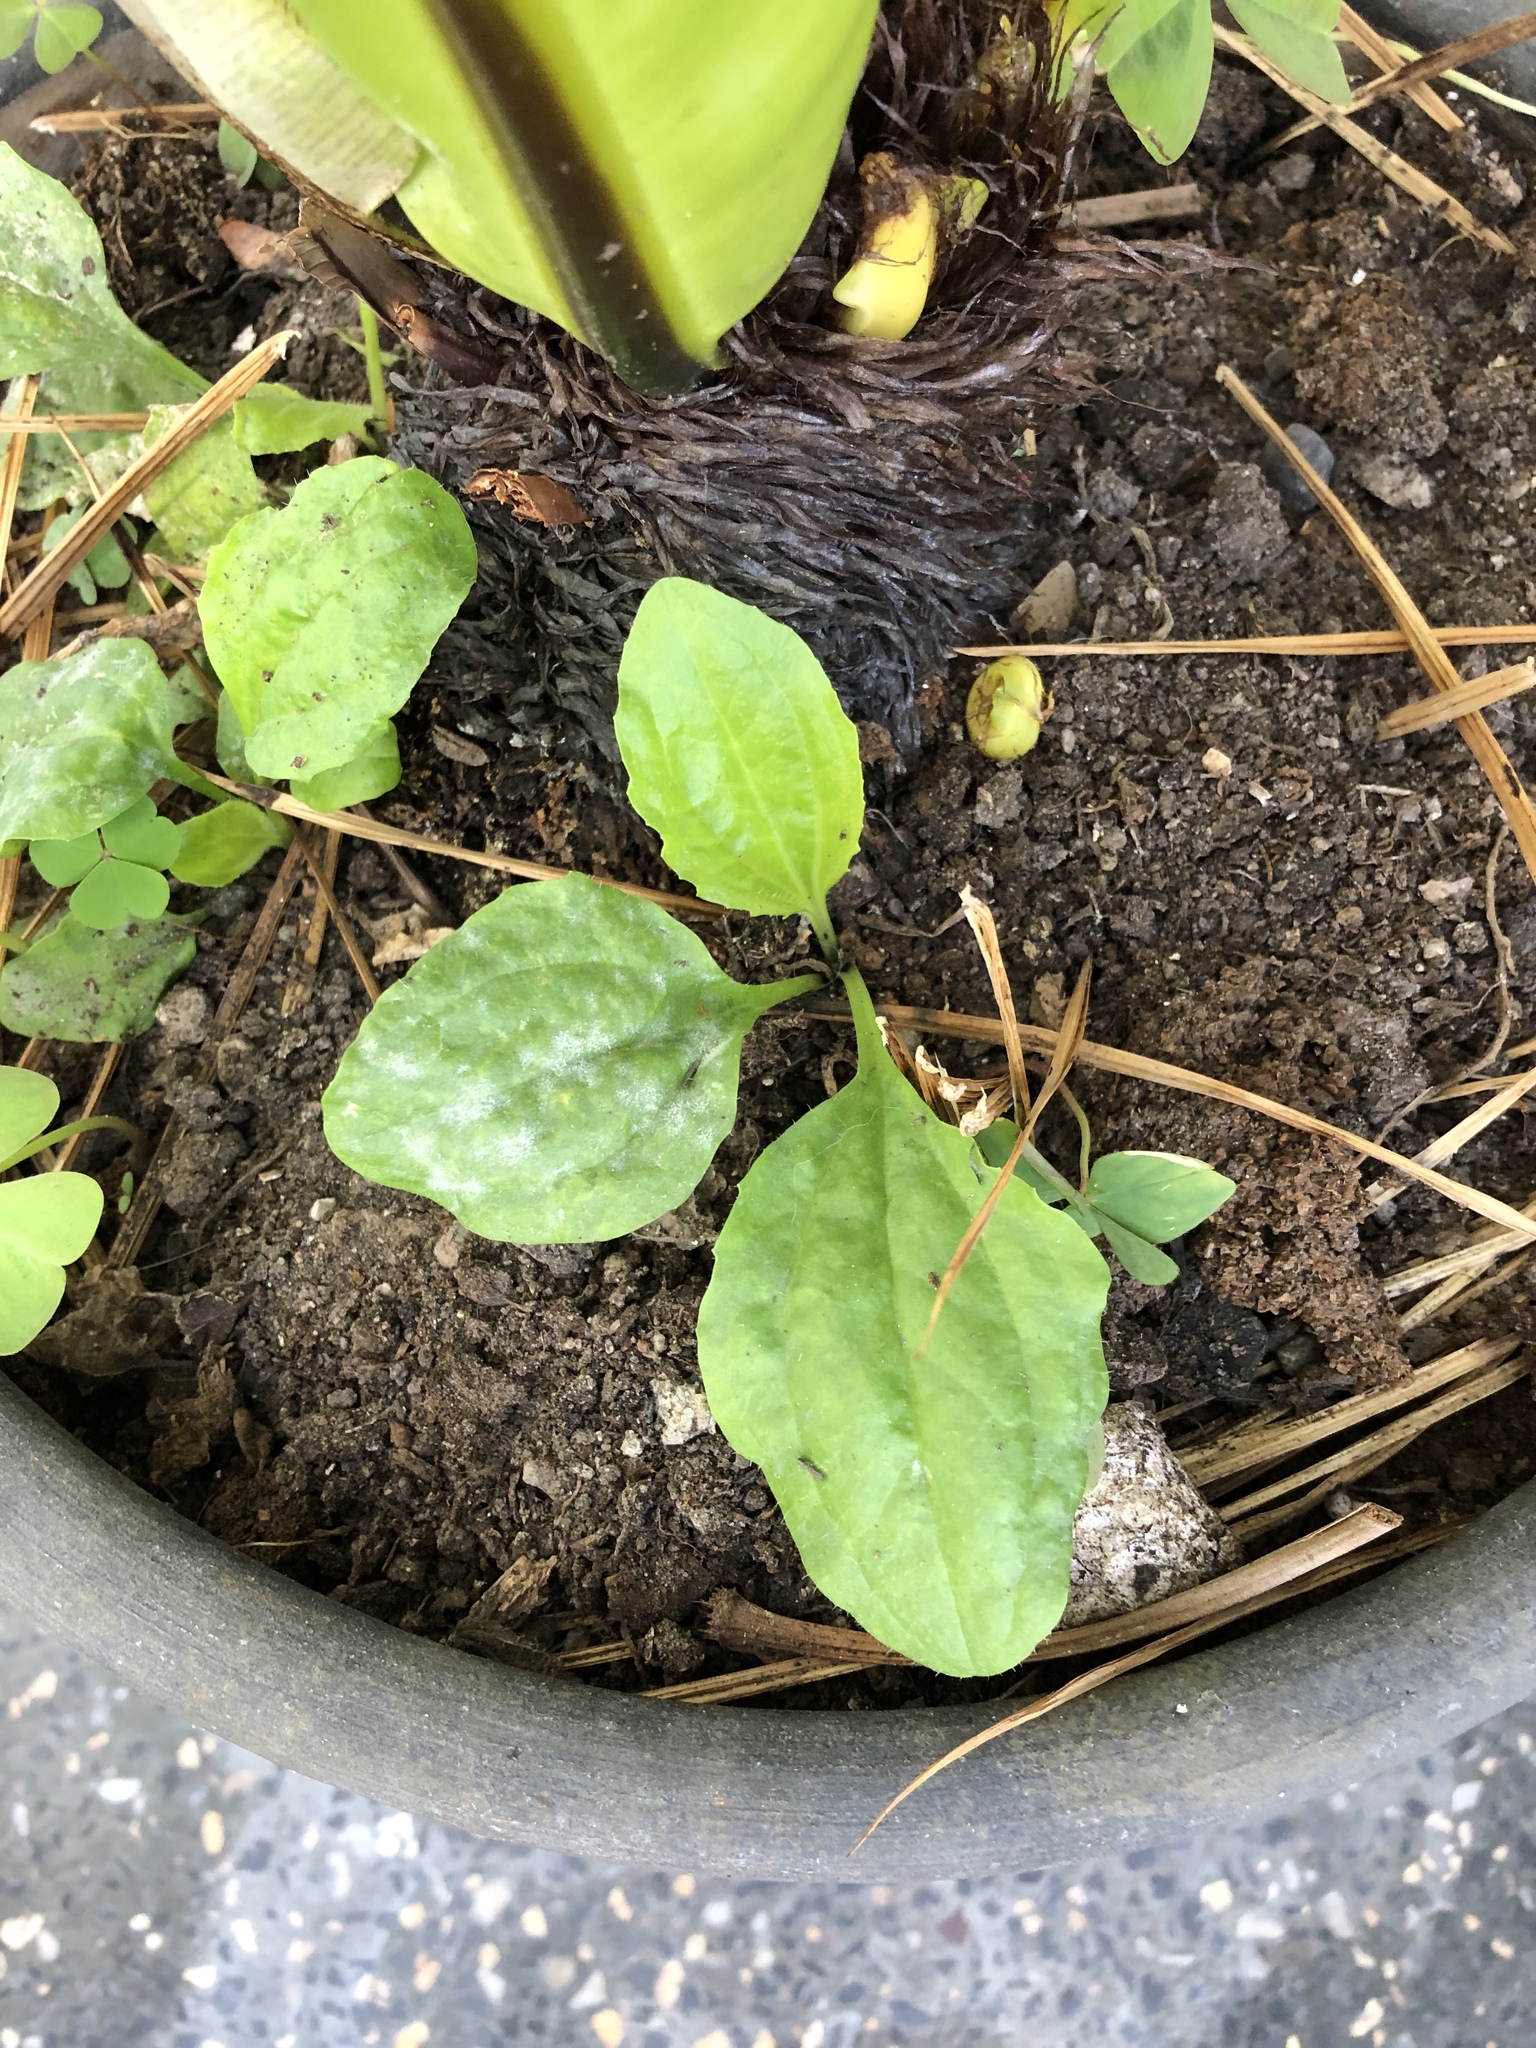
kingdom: Plantae
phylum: Tracheophyta
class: Magnoliopsida
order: Lamiales
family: Plantaginaceae
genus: Plantago
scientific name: Plantago major
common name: Common plantain
